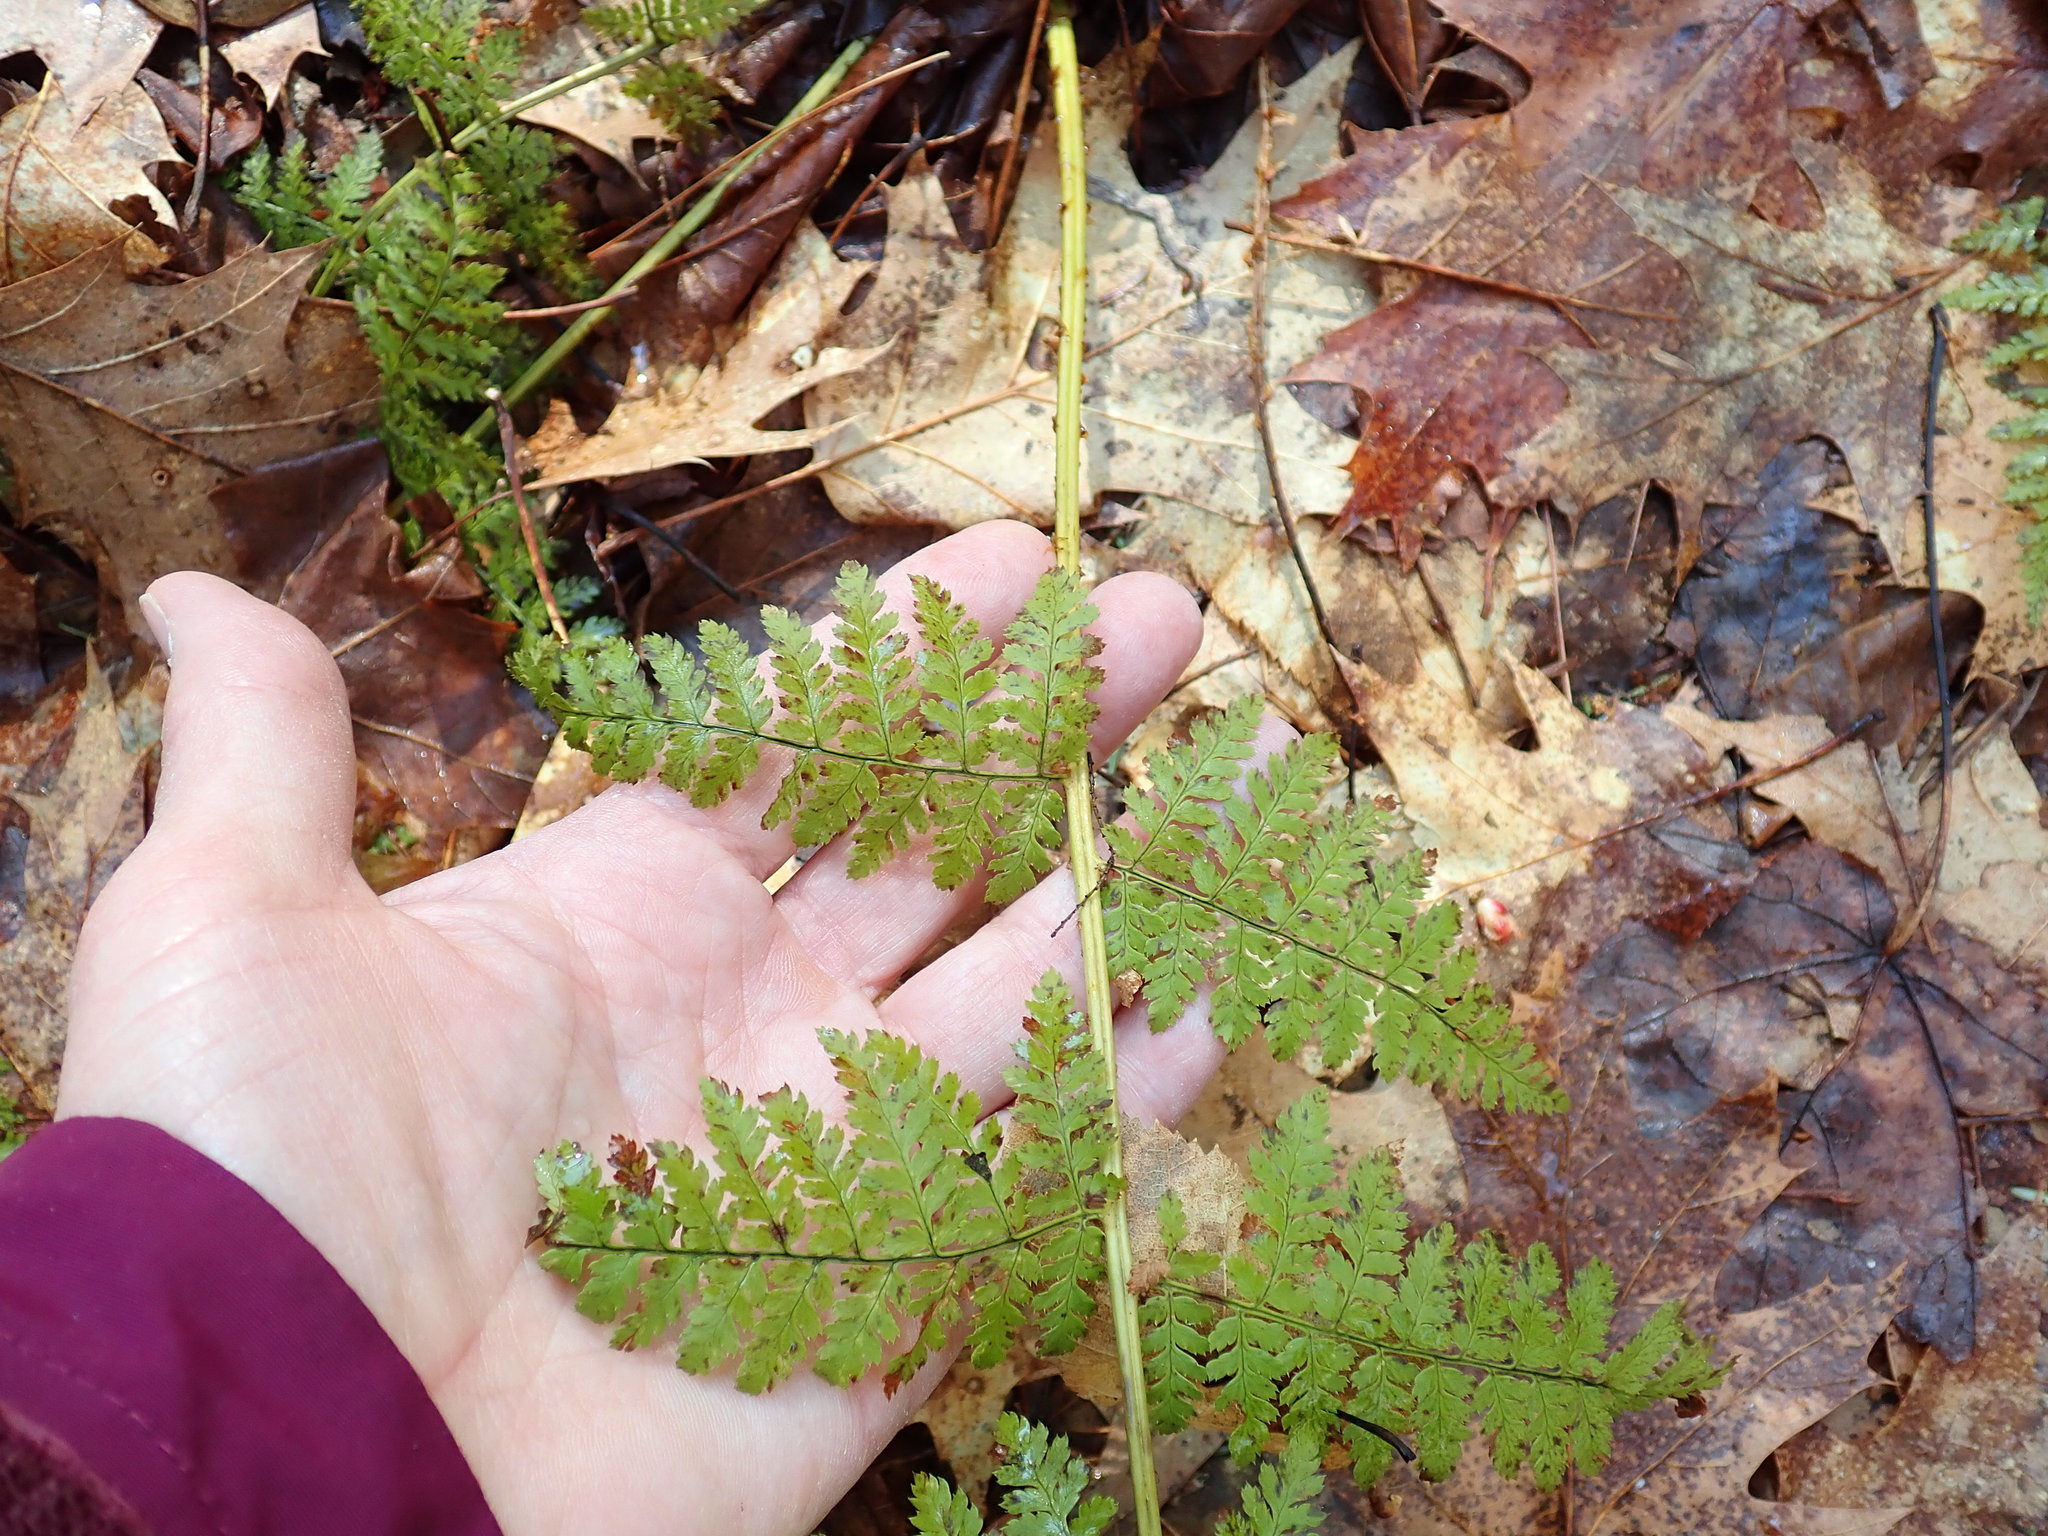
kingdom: Plantae
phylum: Tracheophyta
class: Polypodiopsida
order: Polypodiales
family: Dryopteridaceae
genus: Dryopteris
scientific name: Dryopteris intermedia
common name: Evergreen wood fern
